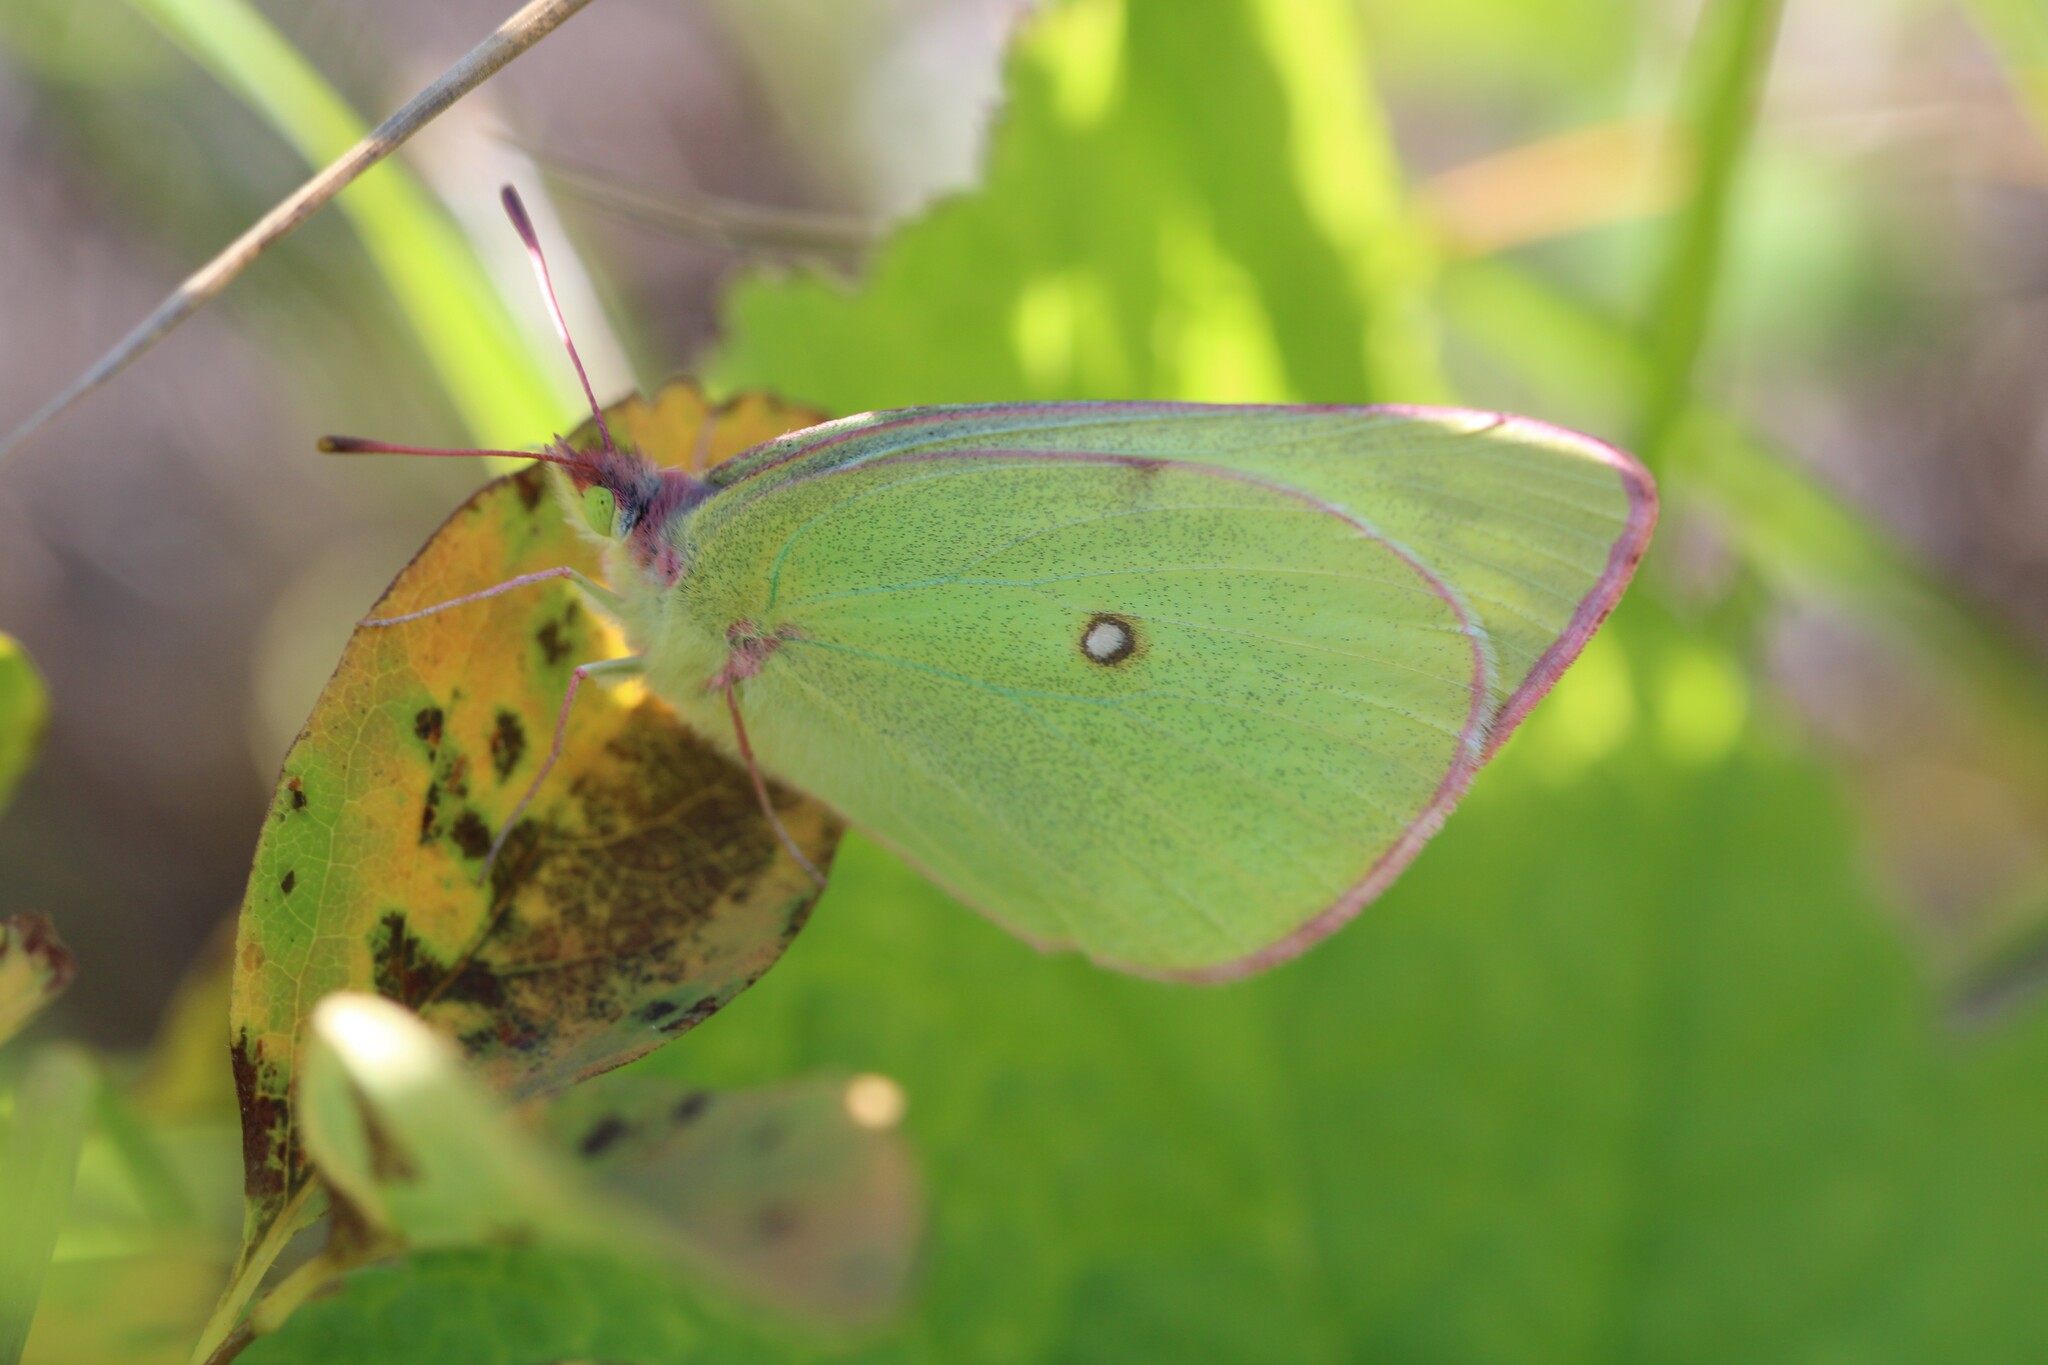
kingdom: Animalia
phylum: Arthropoda
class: Insecta
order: Lepidoptera
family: Pieridae
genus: Colias
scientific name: Colias interior
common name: Pink-edged sulphur
